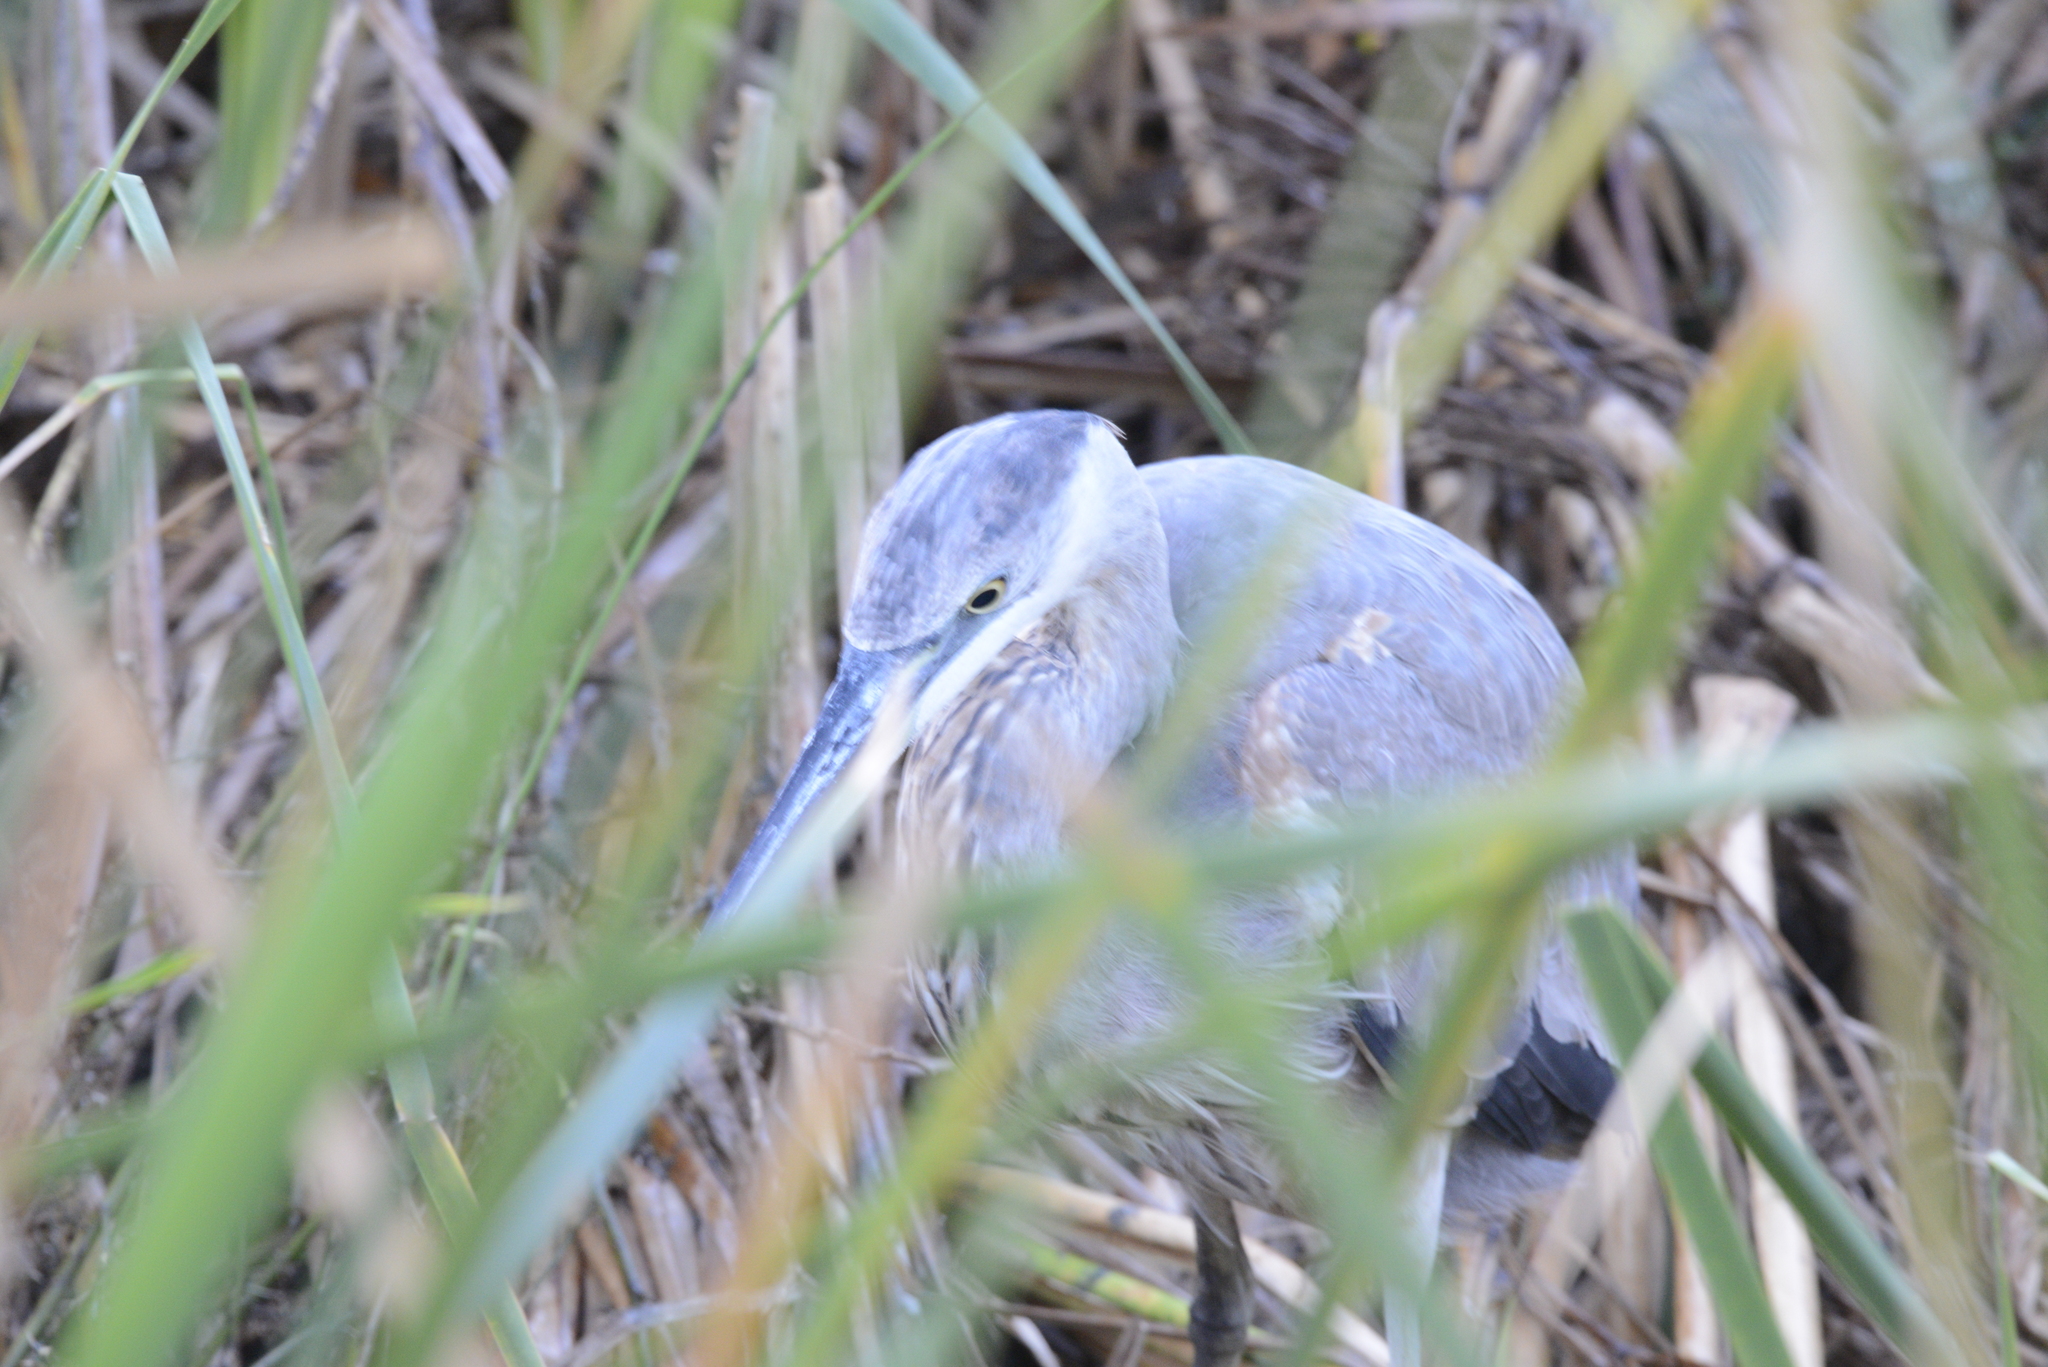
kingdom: Animalia
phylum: Chordata
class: Aves
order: Pelecaniformes
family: Ardeidae
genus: Ardea
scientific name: Ardea herodias
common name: Great blue heron
